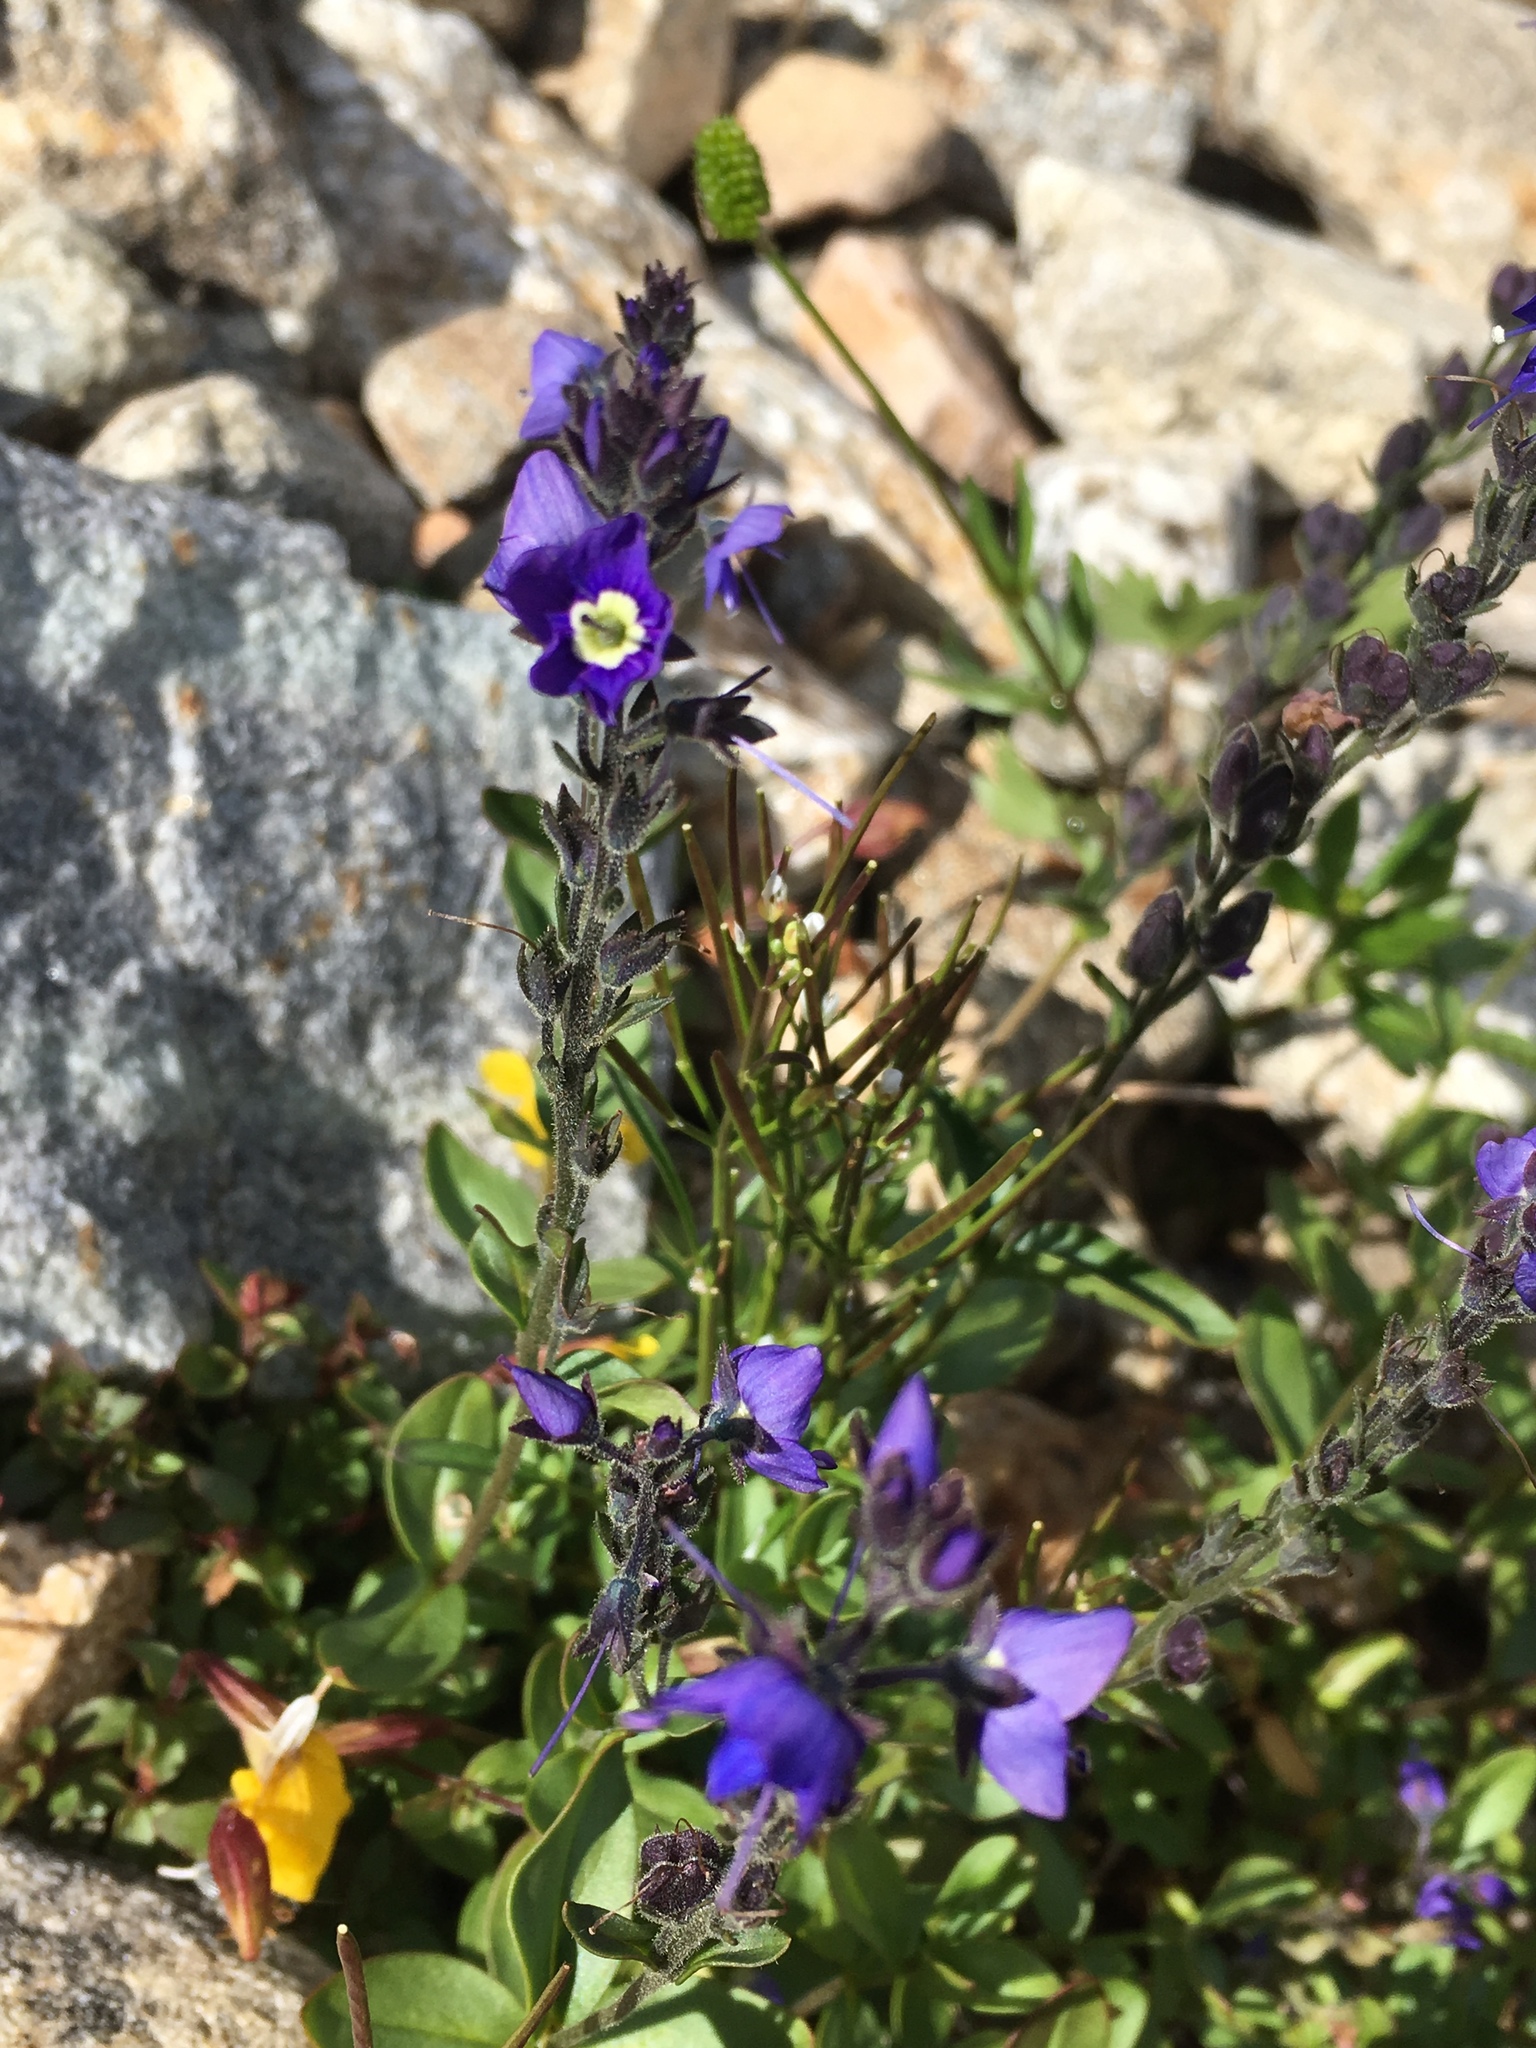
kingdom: Plantae
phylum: Tracheophyta
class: Magnoliopsida
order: Lamiales
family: Plantaginaceae
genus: Veronica
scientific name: Veronica cusickii
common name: Cusick's speedwell
